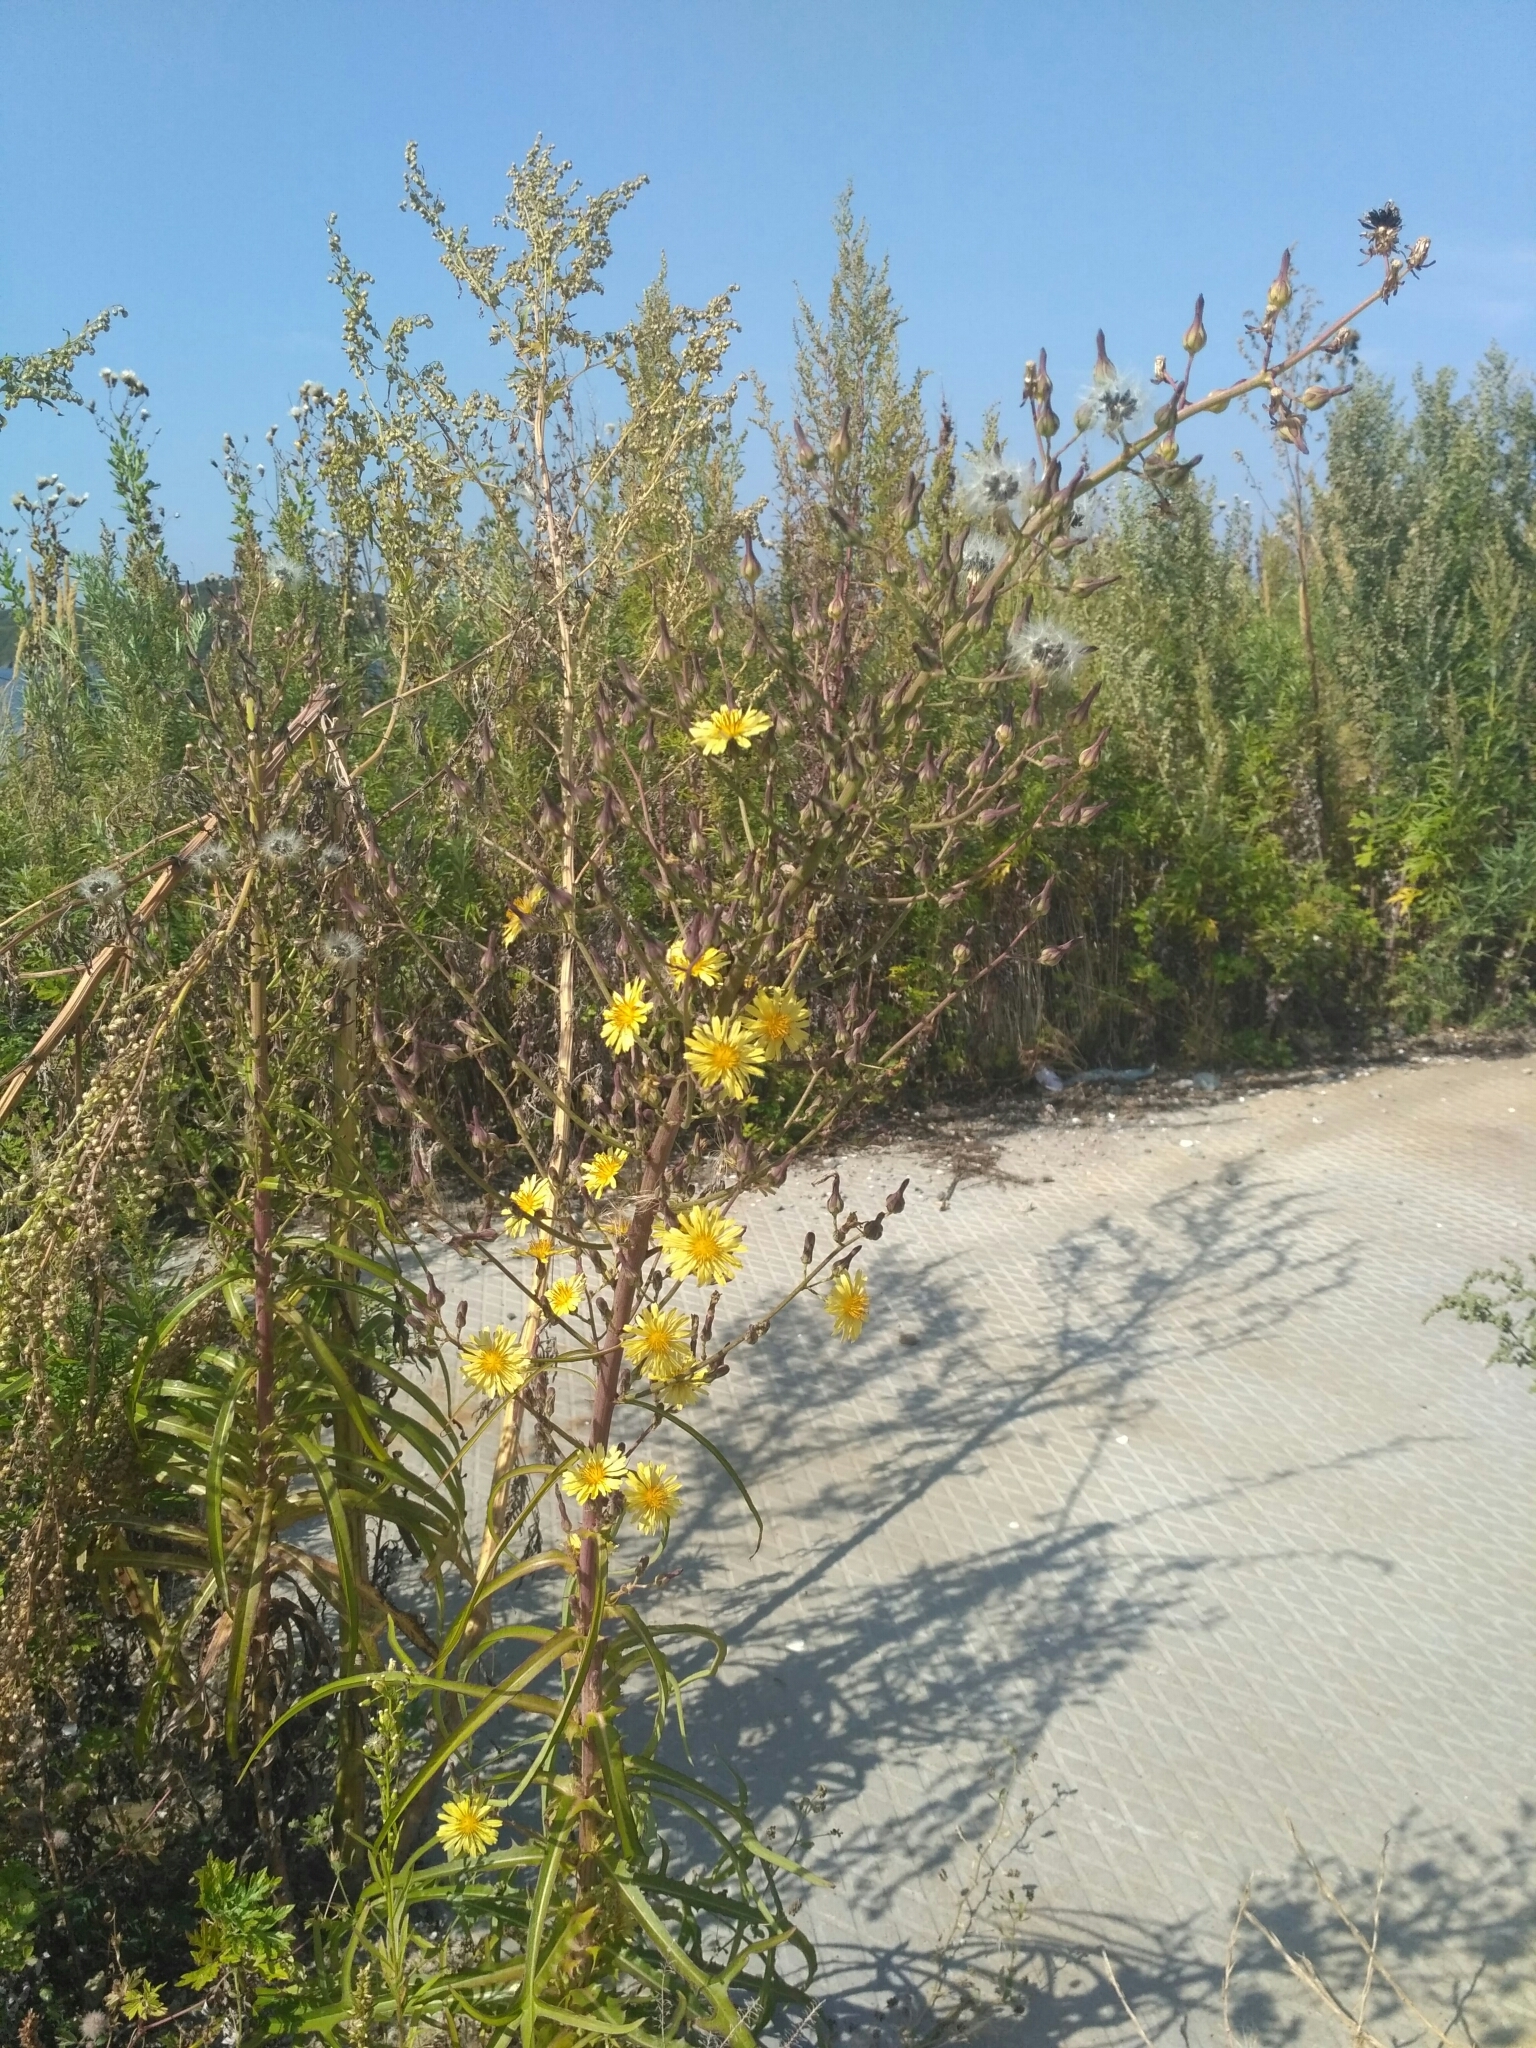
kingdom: Plantae
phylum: Tracheophyta
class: Magnoliopsida
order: Asterales
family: Asteraceae
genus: Lactuca
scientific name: Lactuca indica
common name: Wild lettuce
